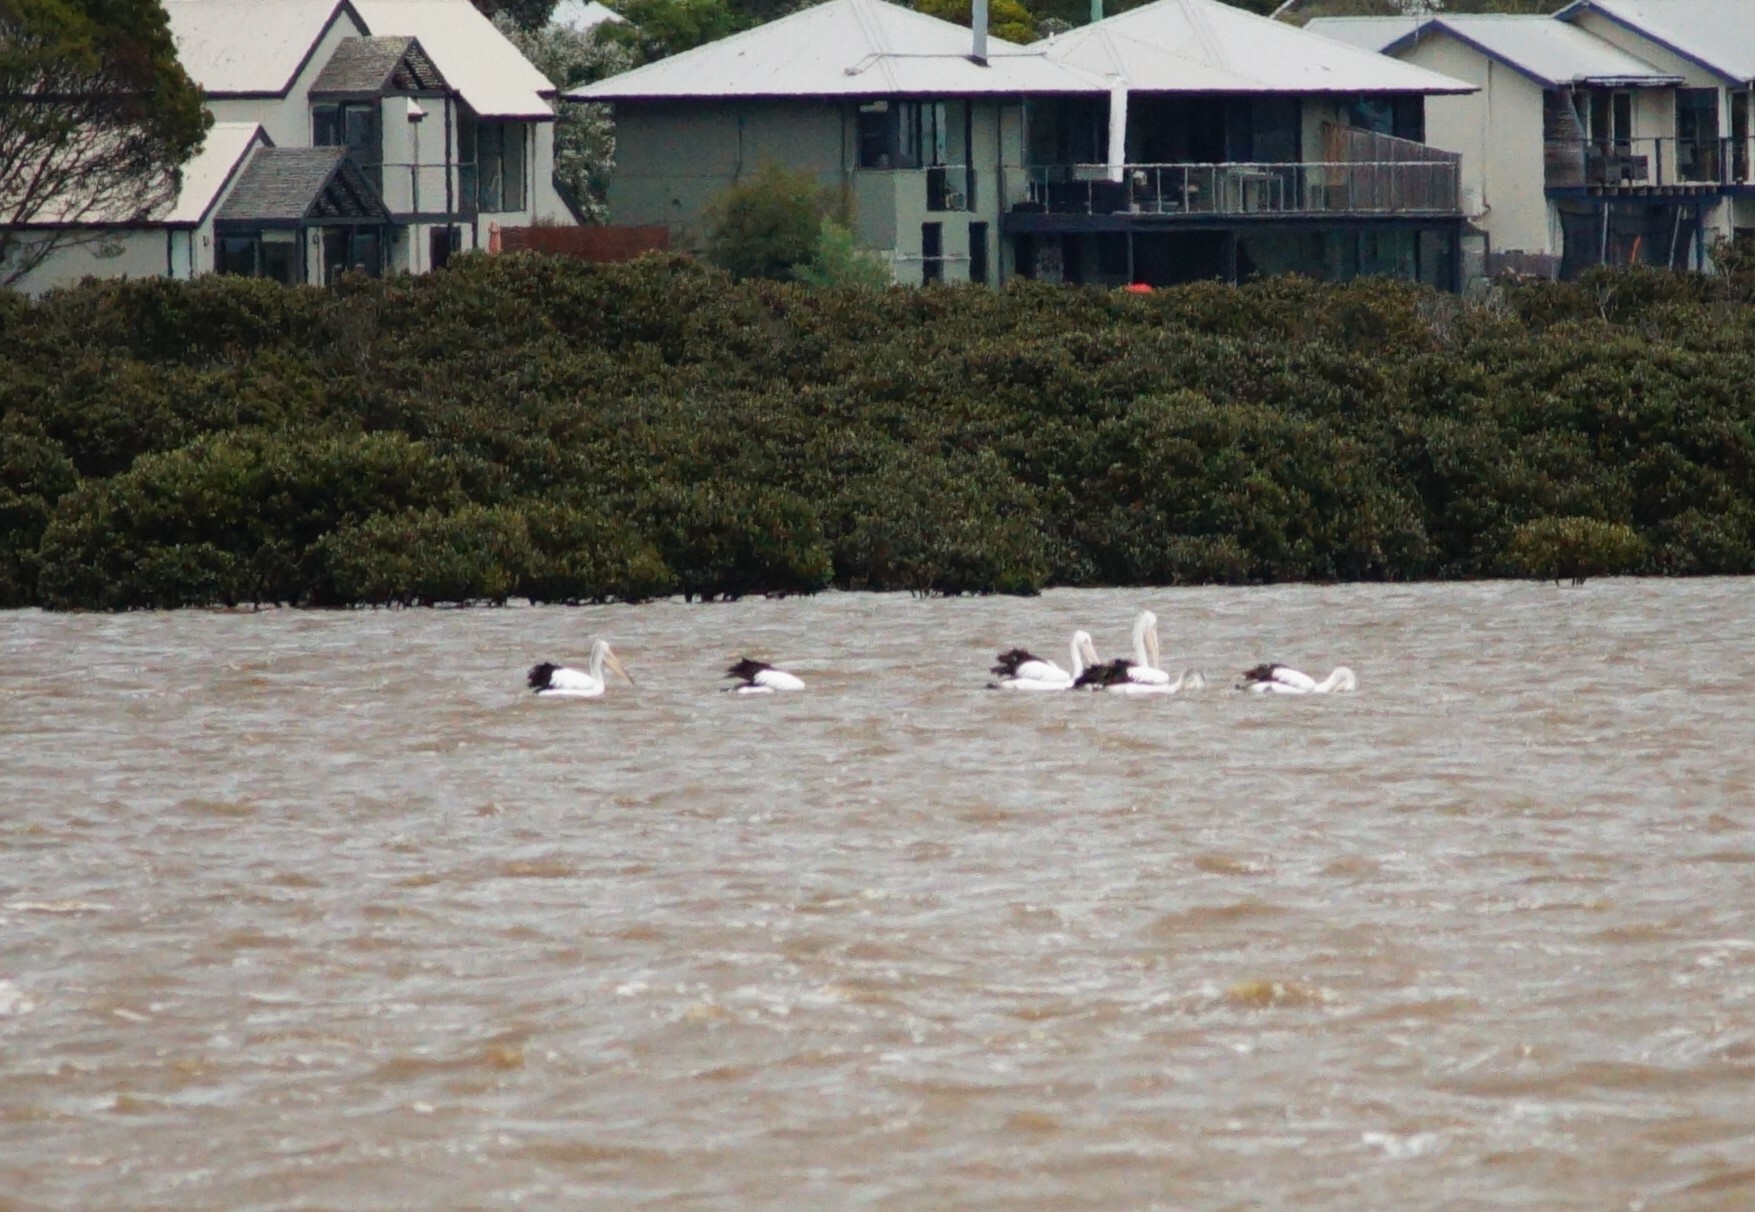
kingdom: Animalia
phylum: Chordata
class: Aves
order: Pelecaniformes
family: Pelecanidae
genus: Pelecanus
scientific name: Pelecanus conspicillatus
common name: Australian pelican
